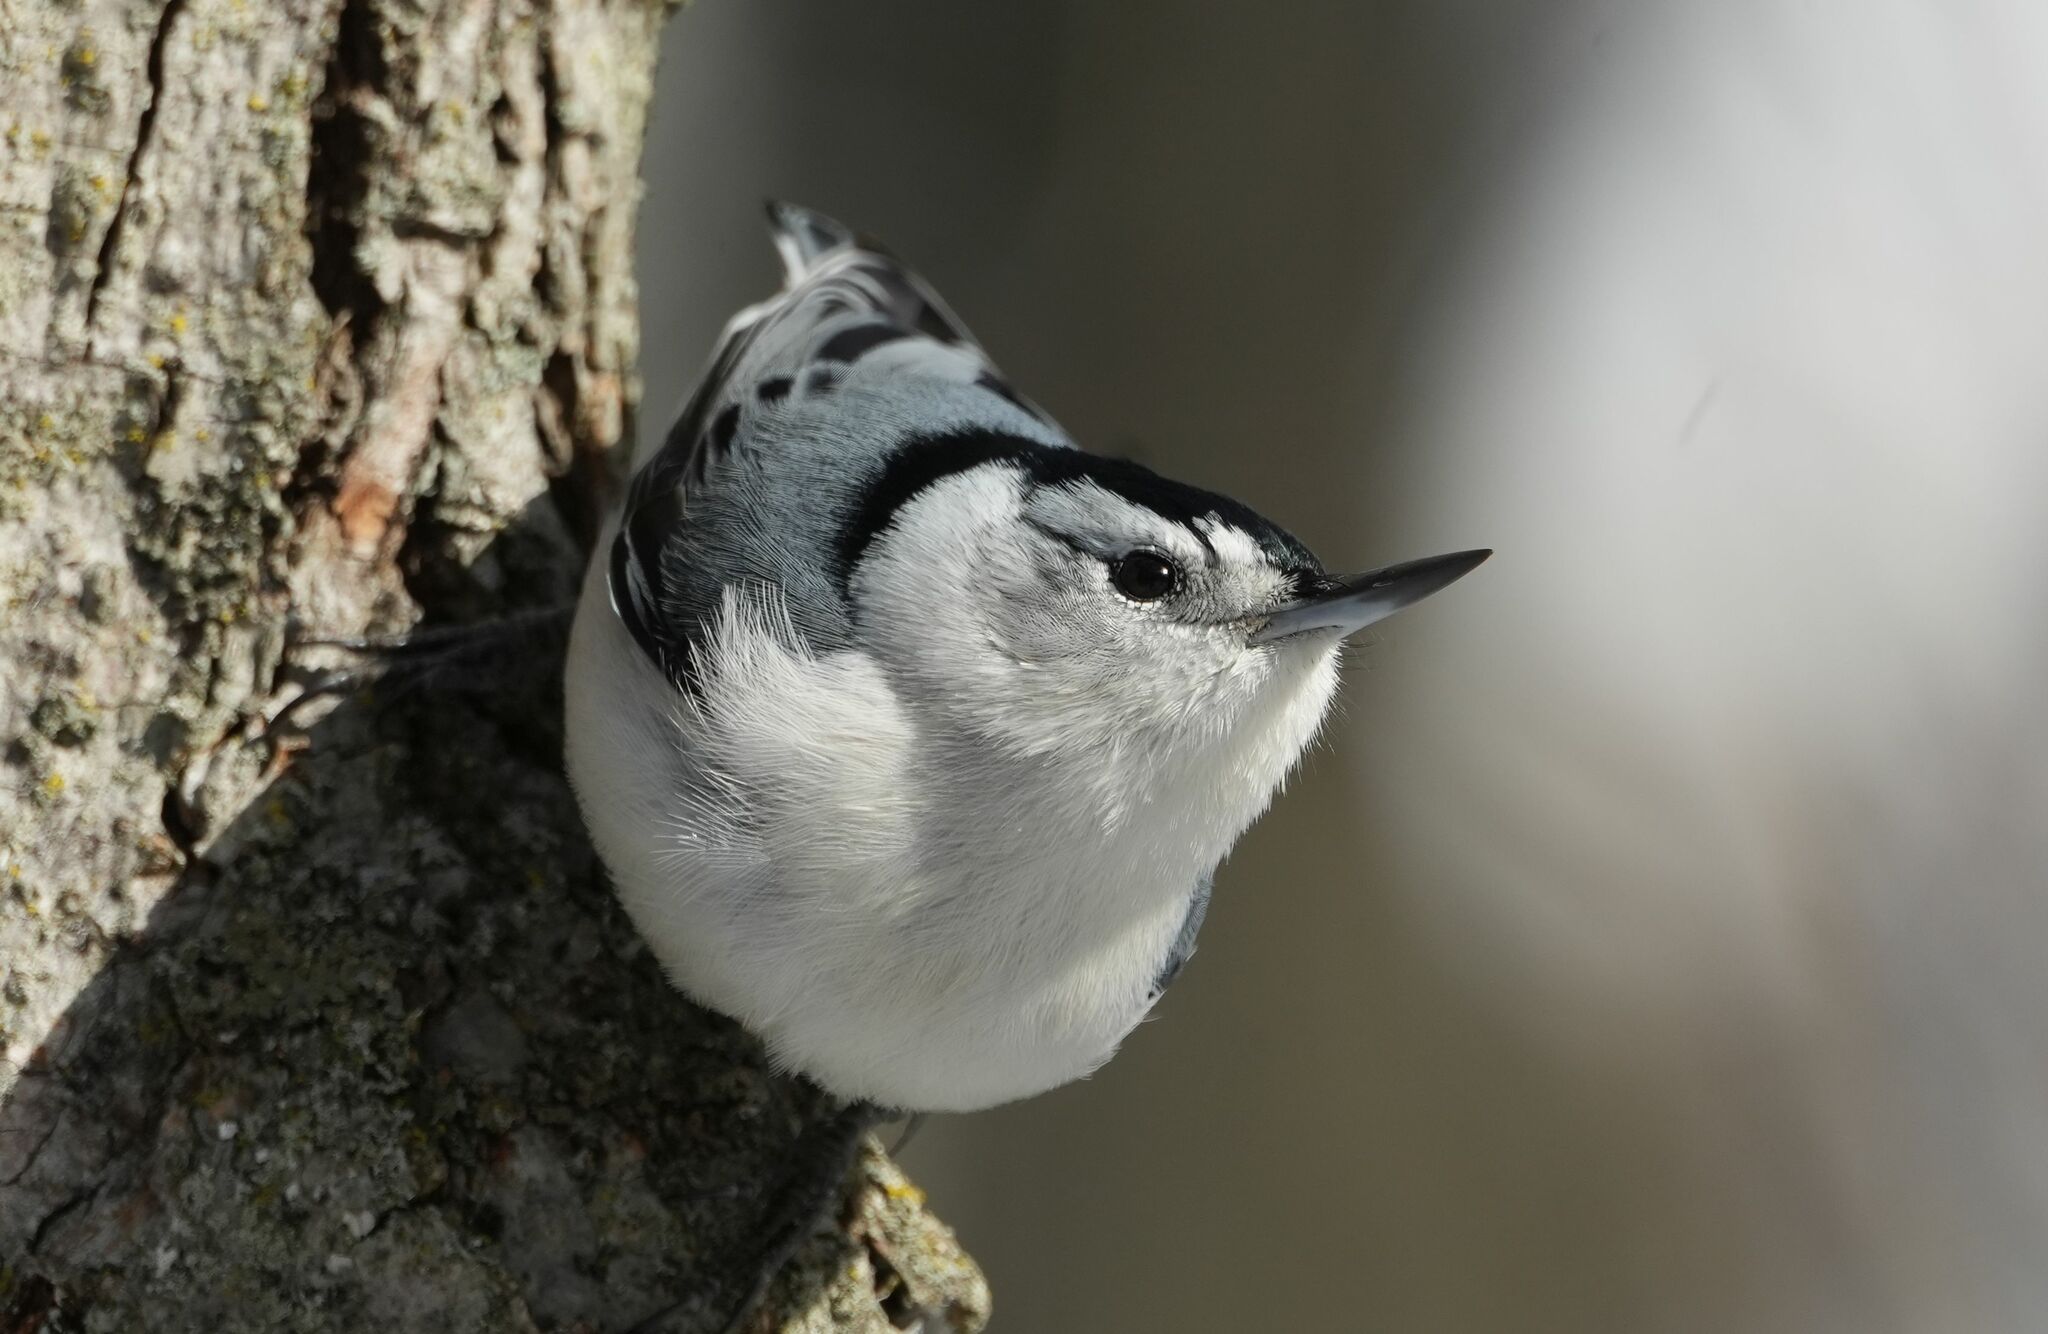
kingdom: Animalia
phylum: Chordata
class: Aves
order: Passeriformes
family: Sittidae
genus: Sitta
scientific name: Sitta carolinensis
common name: White-breasted nuthatch
